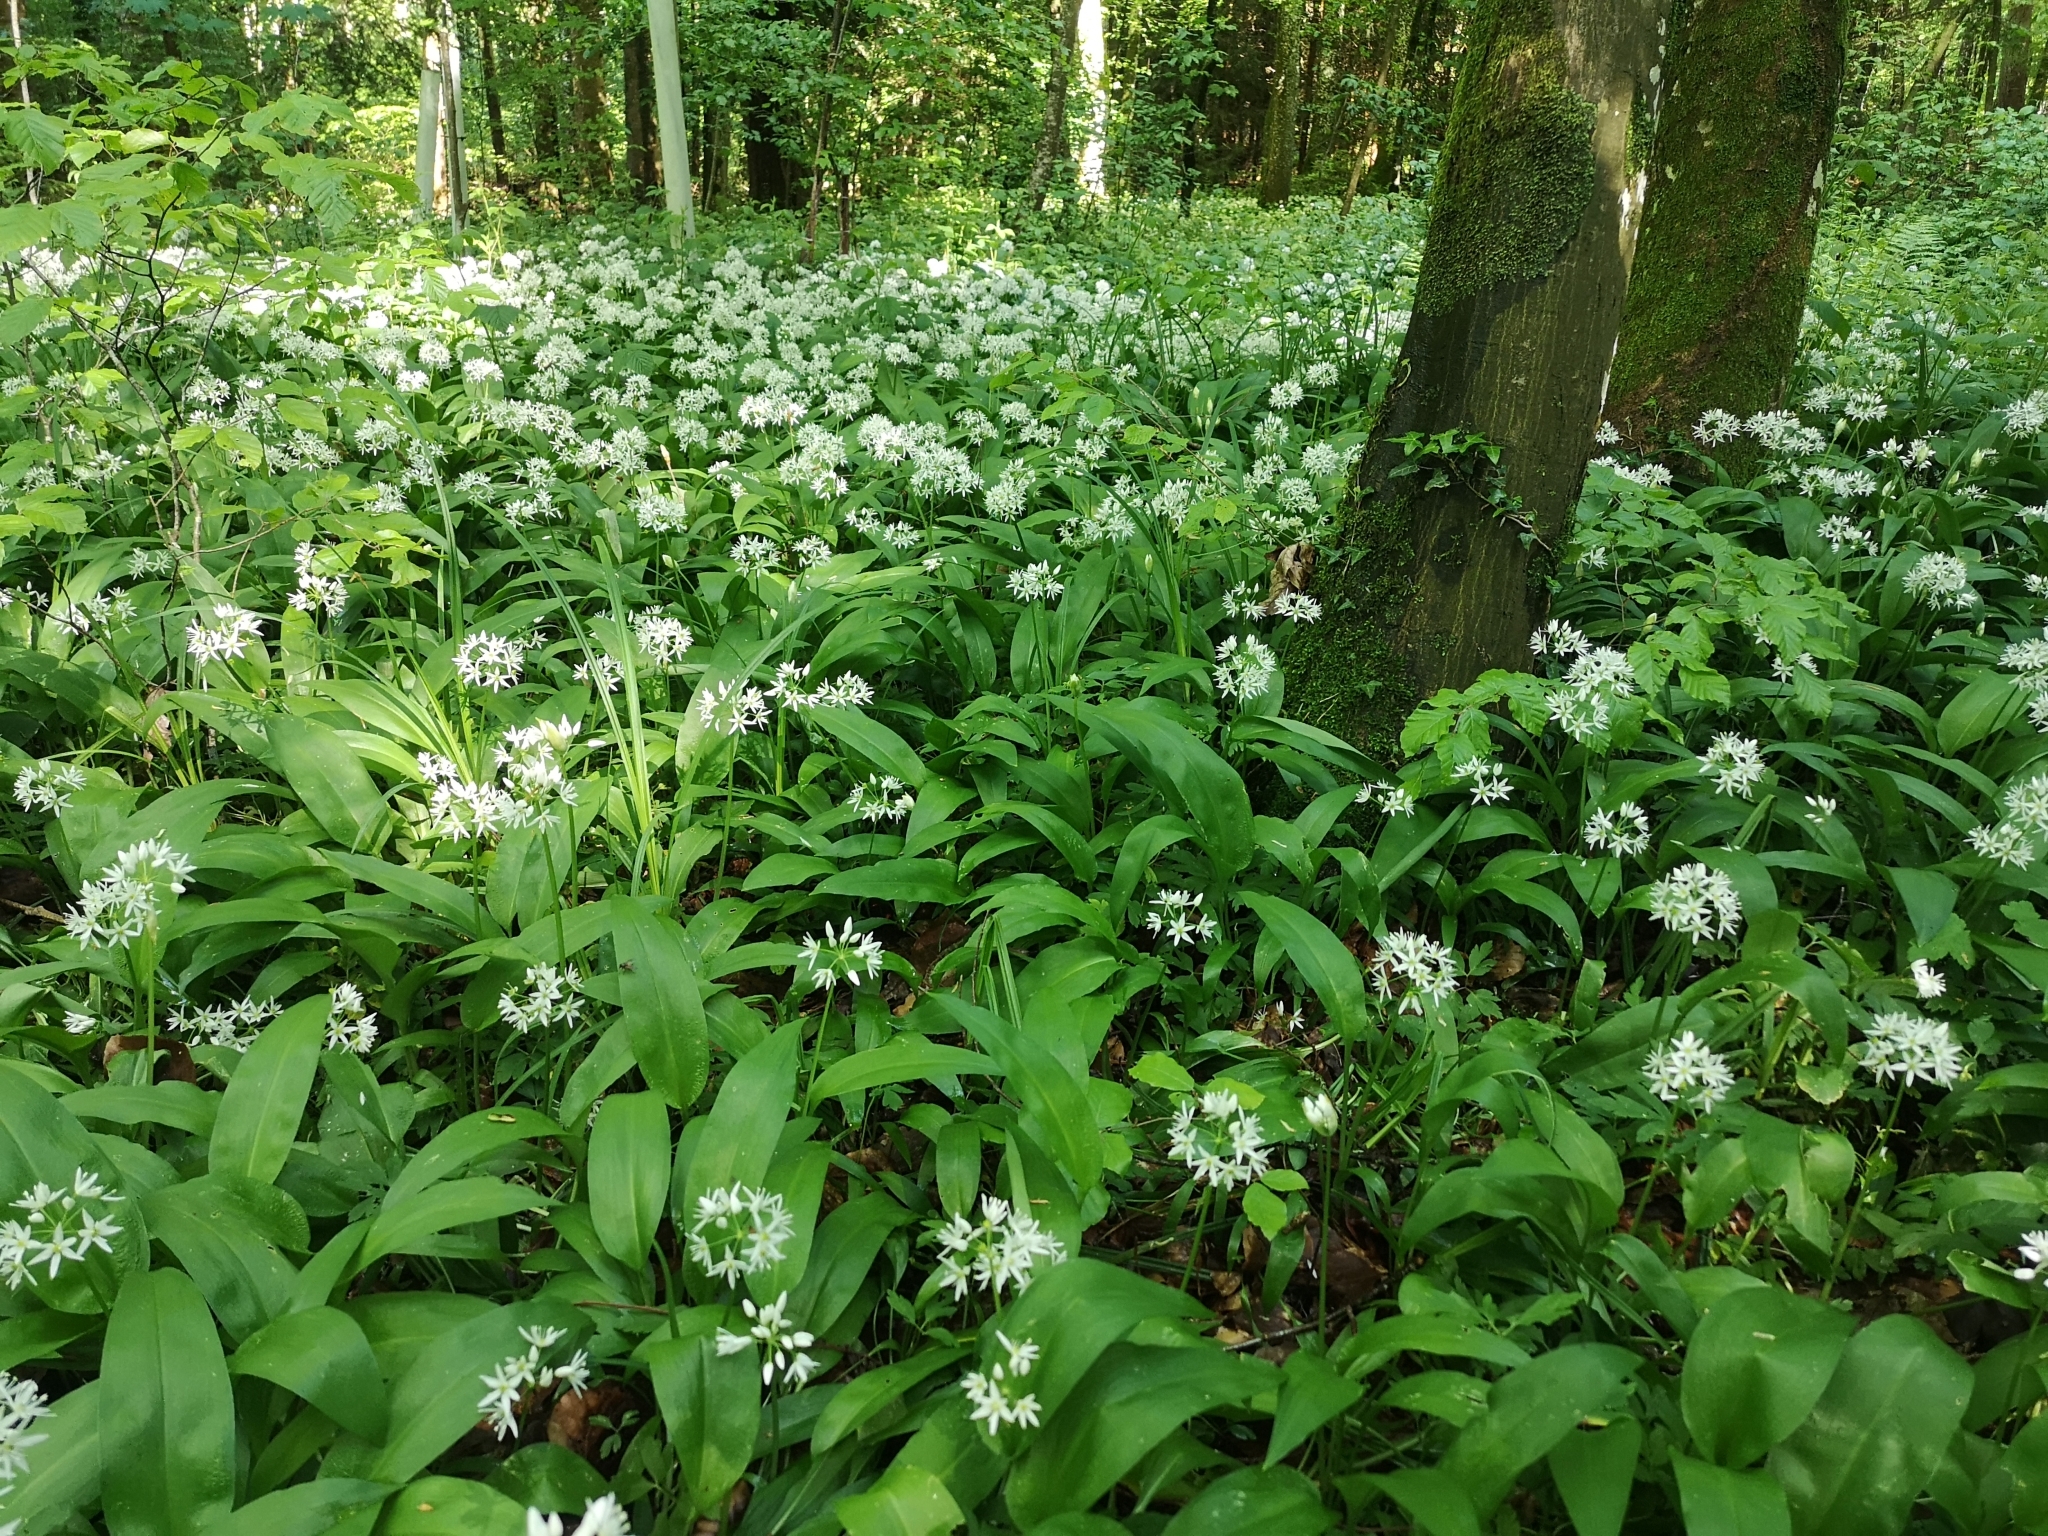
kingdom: Plantae
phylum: Tracheophyta
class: Liliopsida
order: Asparagales
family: Amaryllidaceae
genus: Allium
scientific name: Allium ursinum
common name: Ramsons
